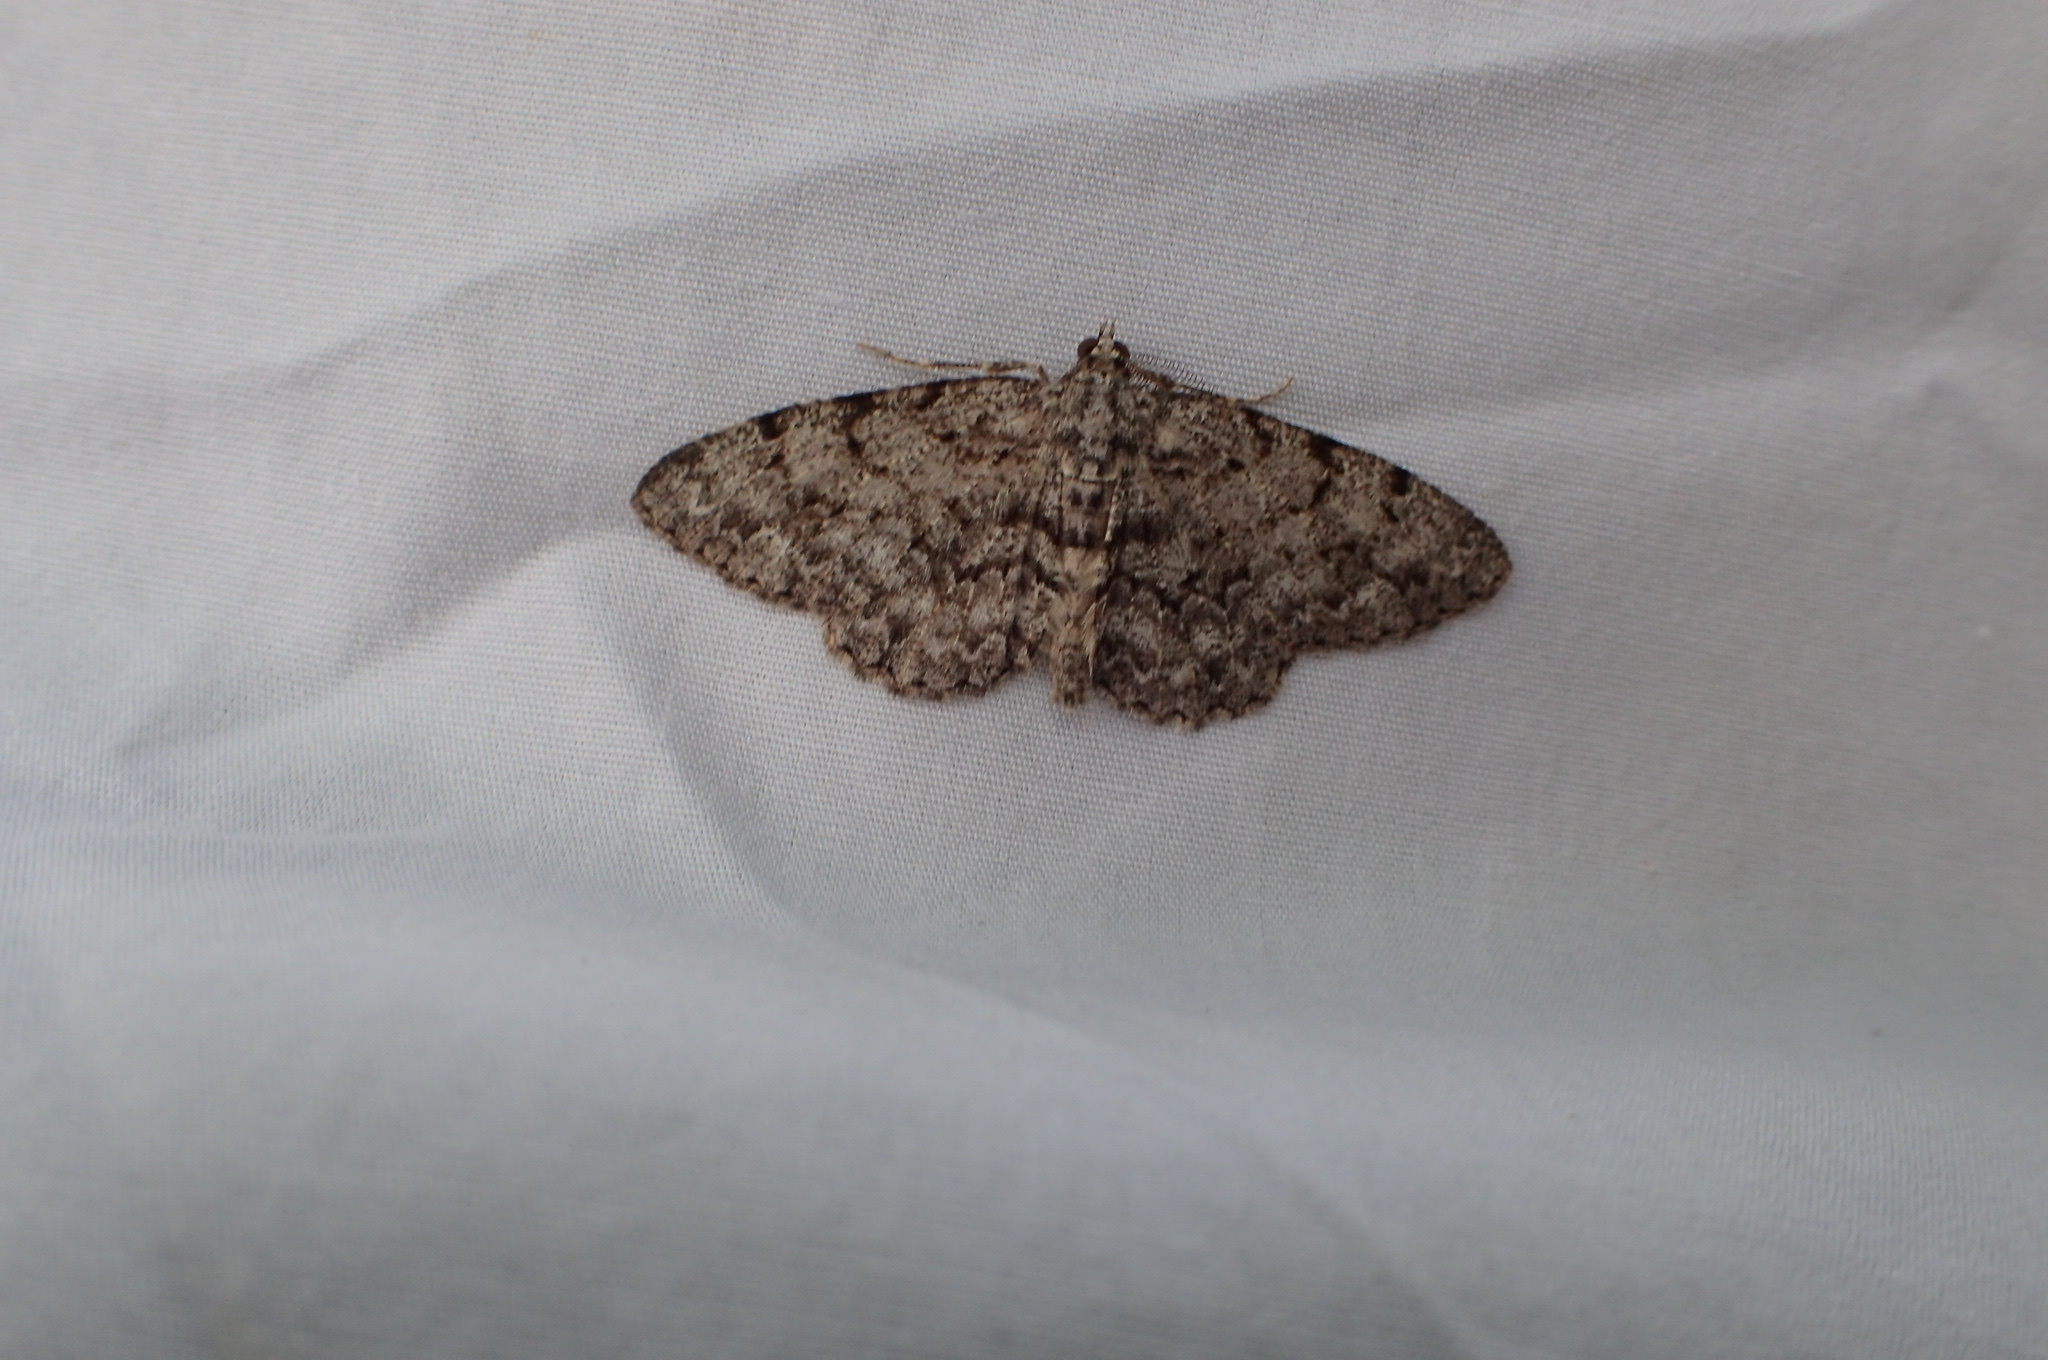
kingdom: Animalia
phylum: Arthropoda
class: Insecta
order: Lepidoptera
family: Geometridae
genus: Protoboarmia
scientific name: Protoboarmia porcelaria
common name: Porcelain gray
